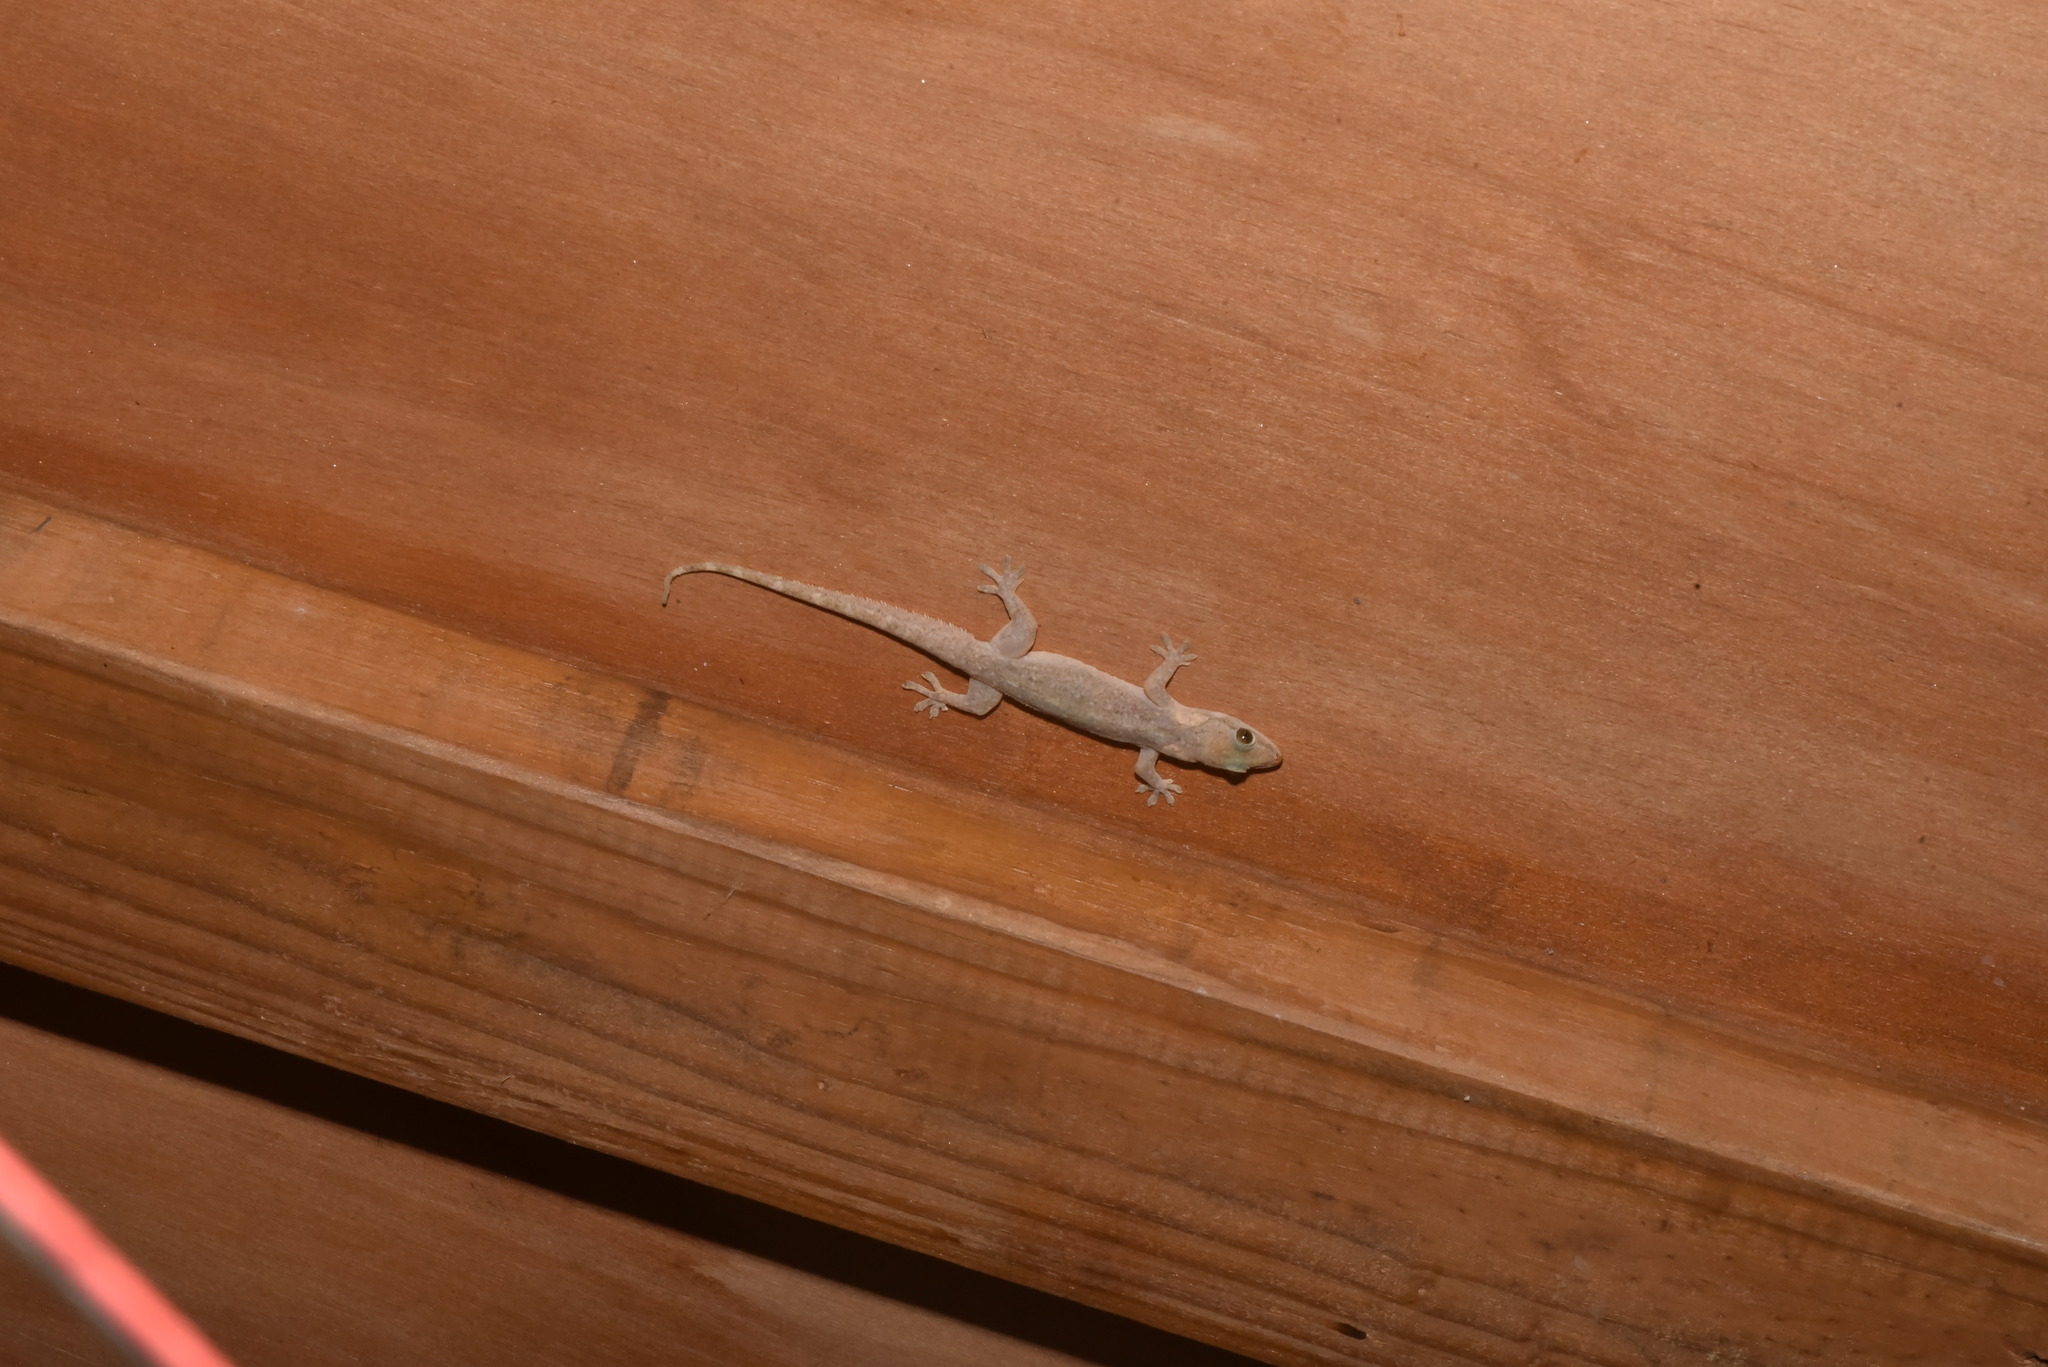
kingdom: Animalia
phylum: Chordata
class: Squamata
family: Gekkonidae
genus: Hemidactylus
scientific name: Hemidactylus stejnegeri
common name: Stejneger's leaftoed gecko
